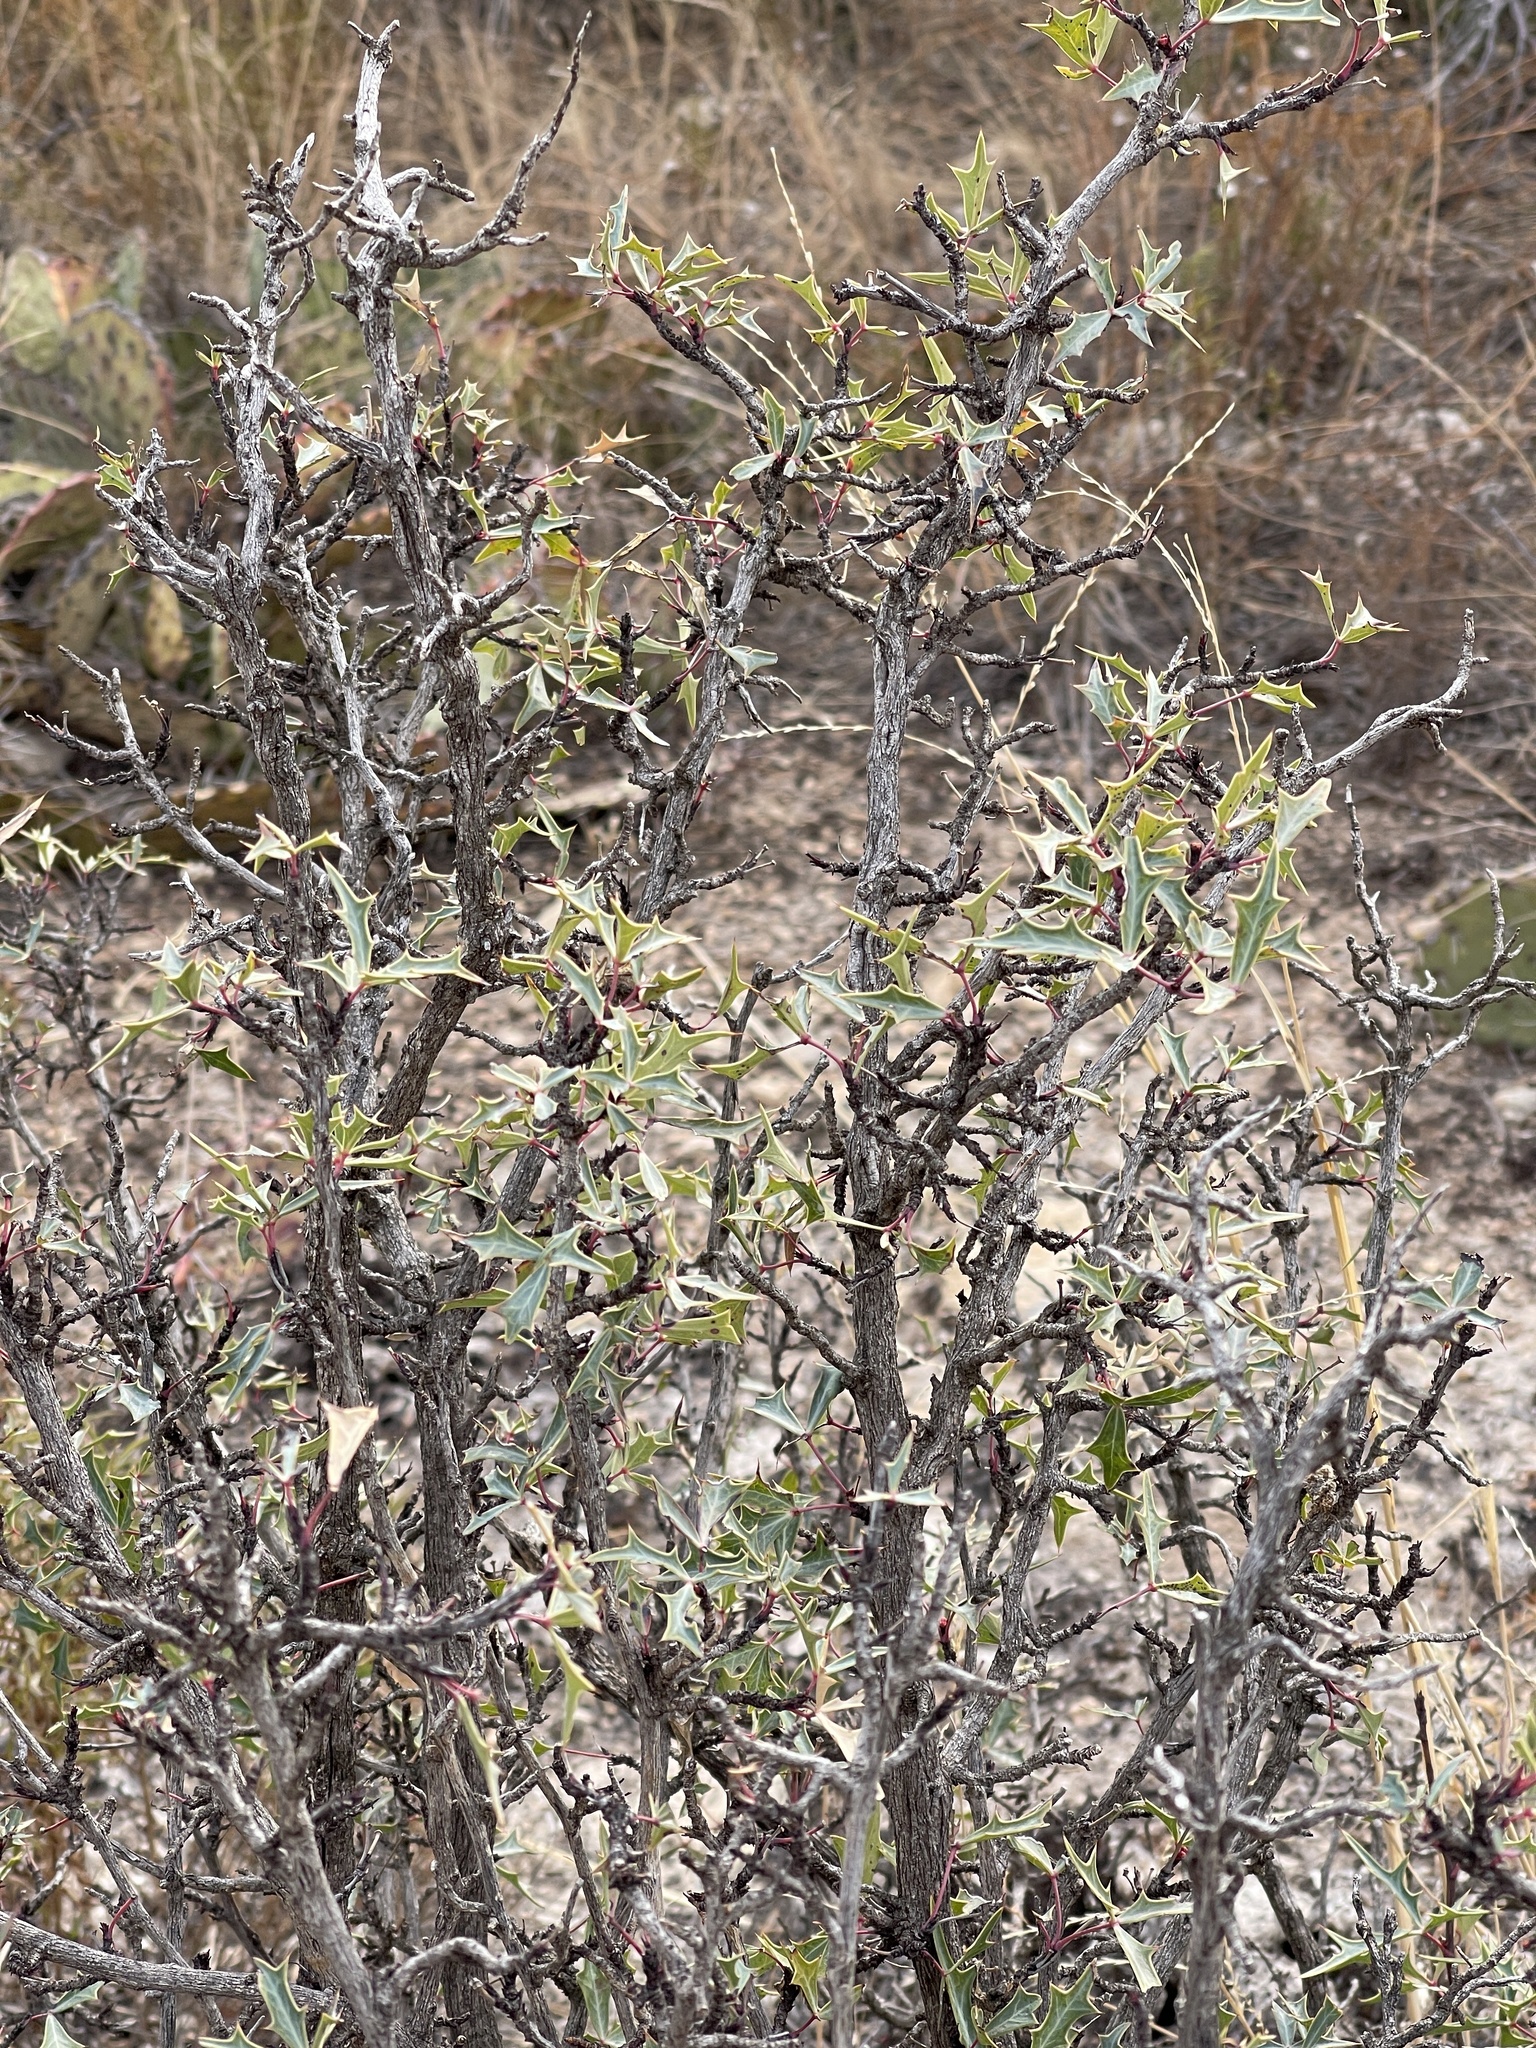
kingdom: Plantae
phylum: Tracheophyta
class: Magnoliopsida
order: Ranunculales
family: Berberidaceae
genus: Alloberberis
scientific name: Alloberberis trifoliolata
